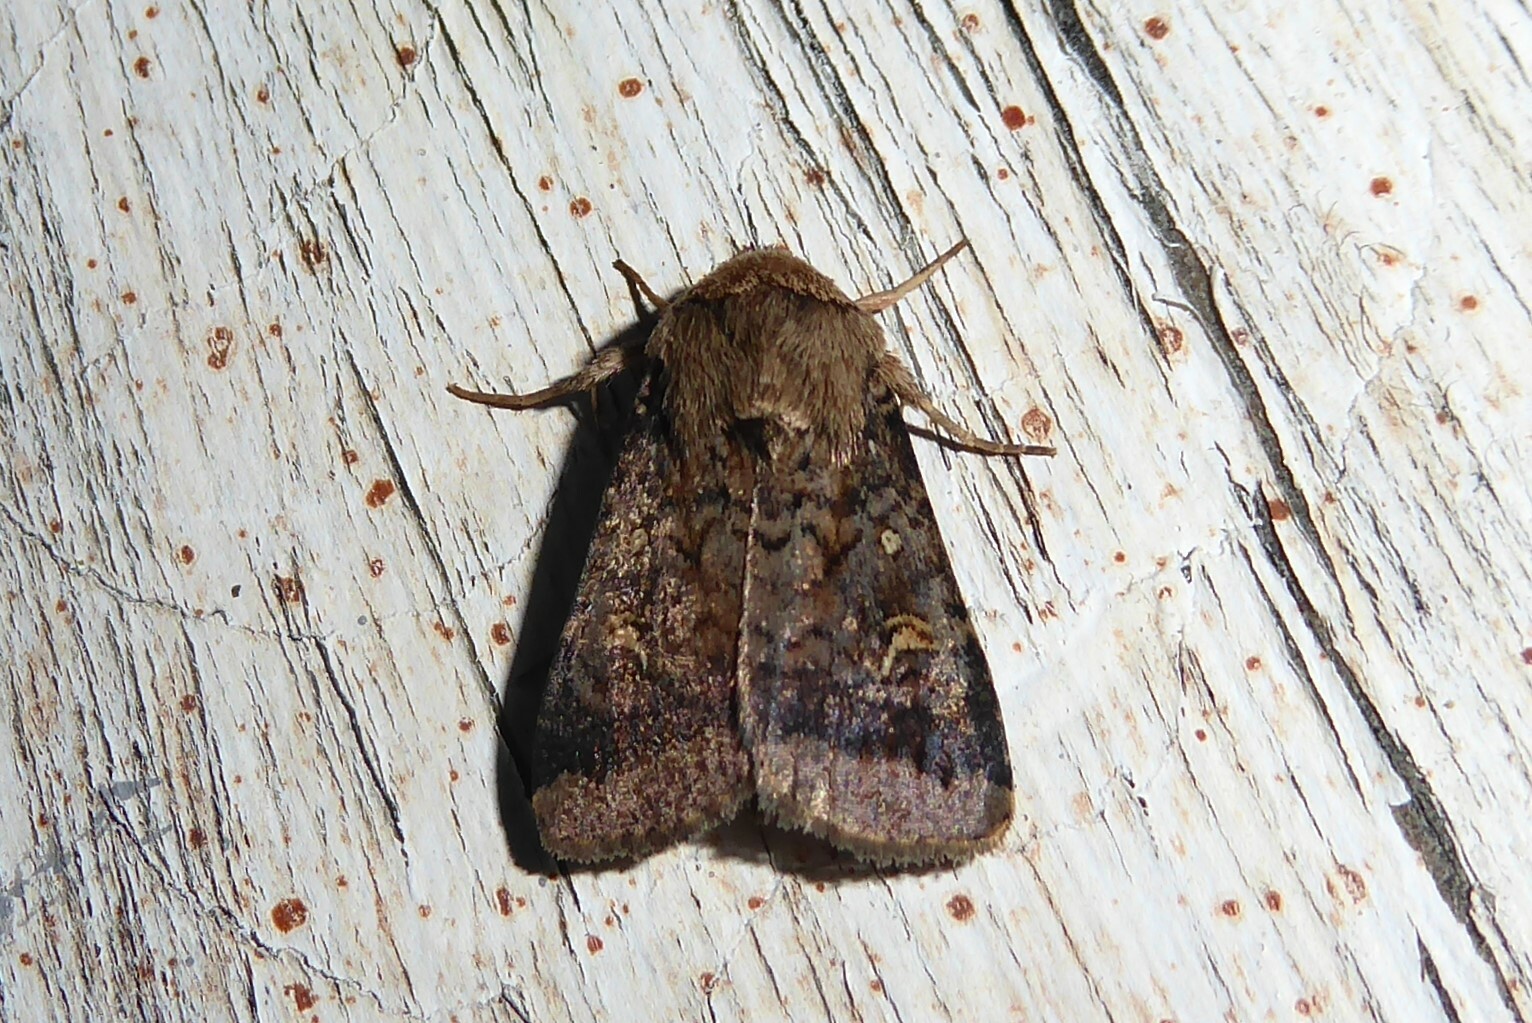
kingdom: Animalia
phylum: Arthropoda
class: Insecta
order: Lepidoptera
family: Noctuidae
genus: Proteuxoa
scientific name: Proteuxoa tetronycha
